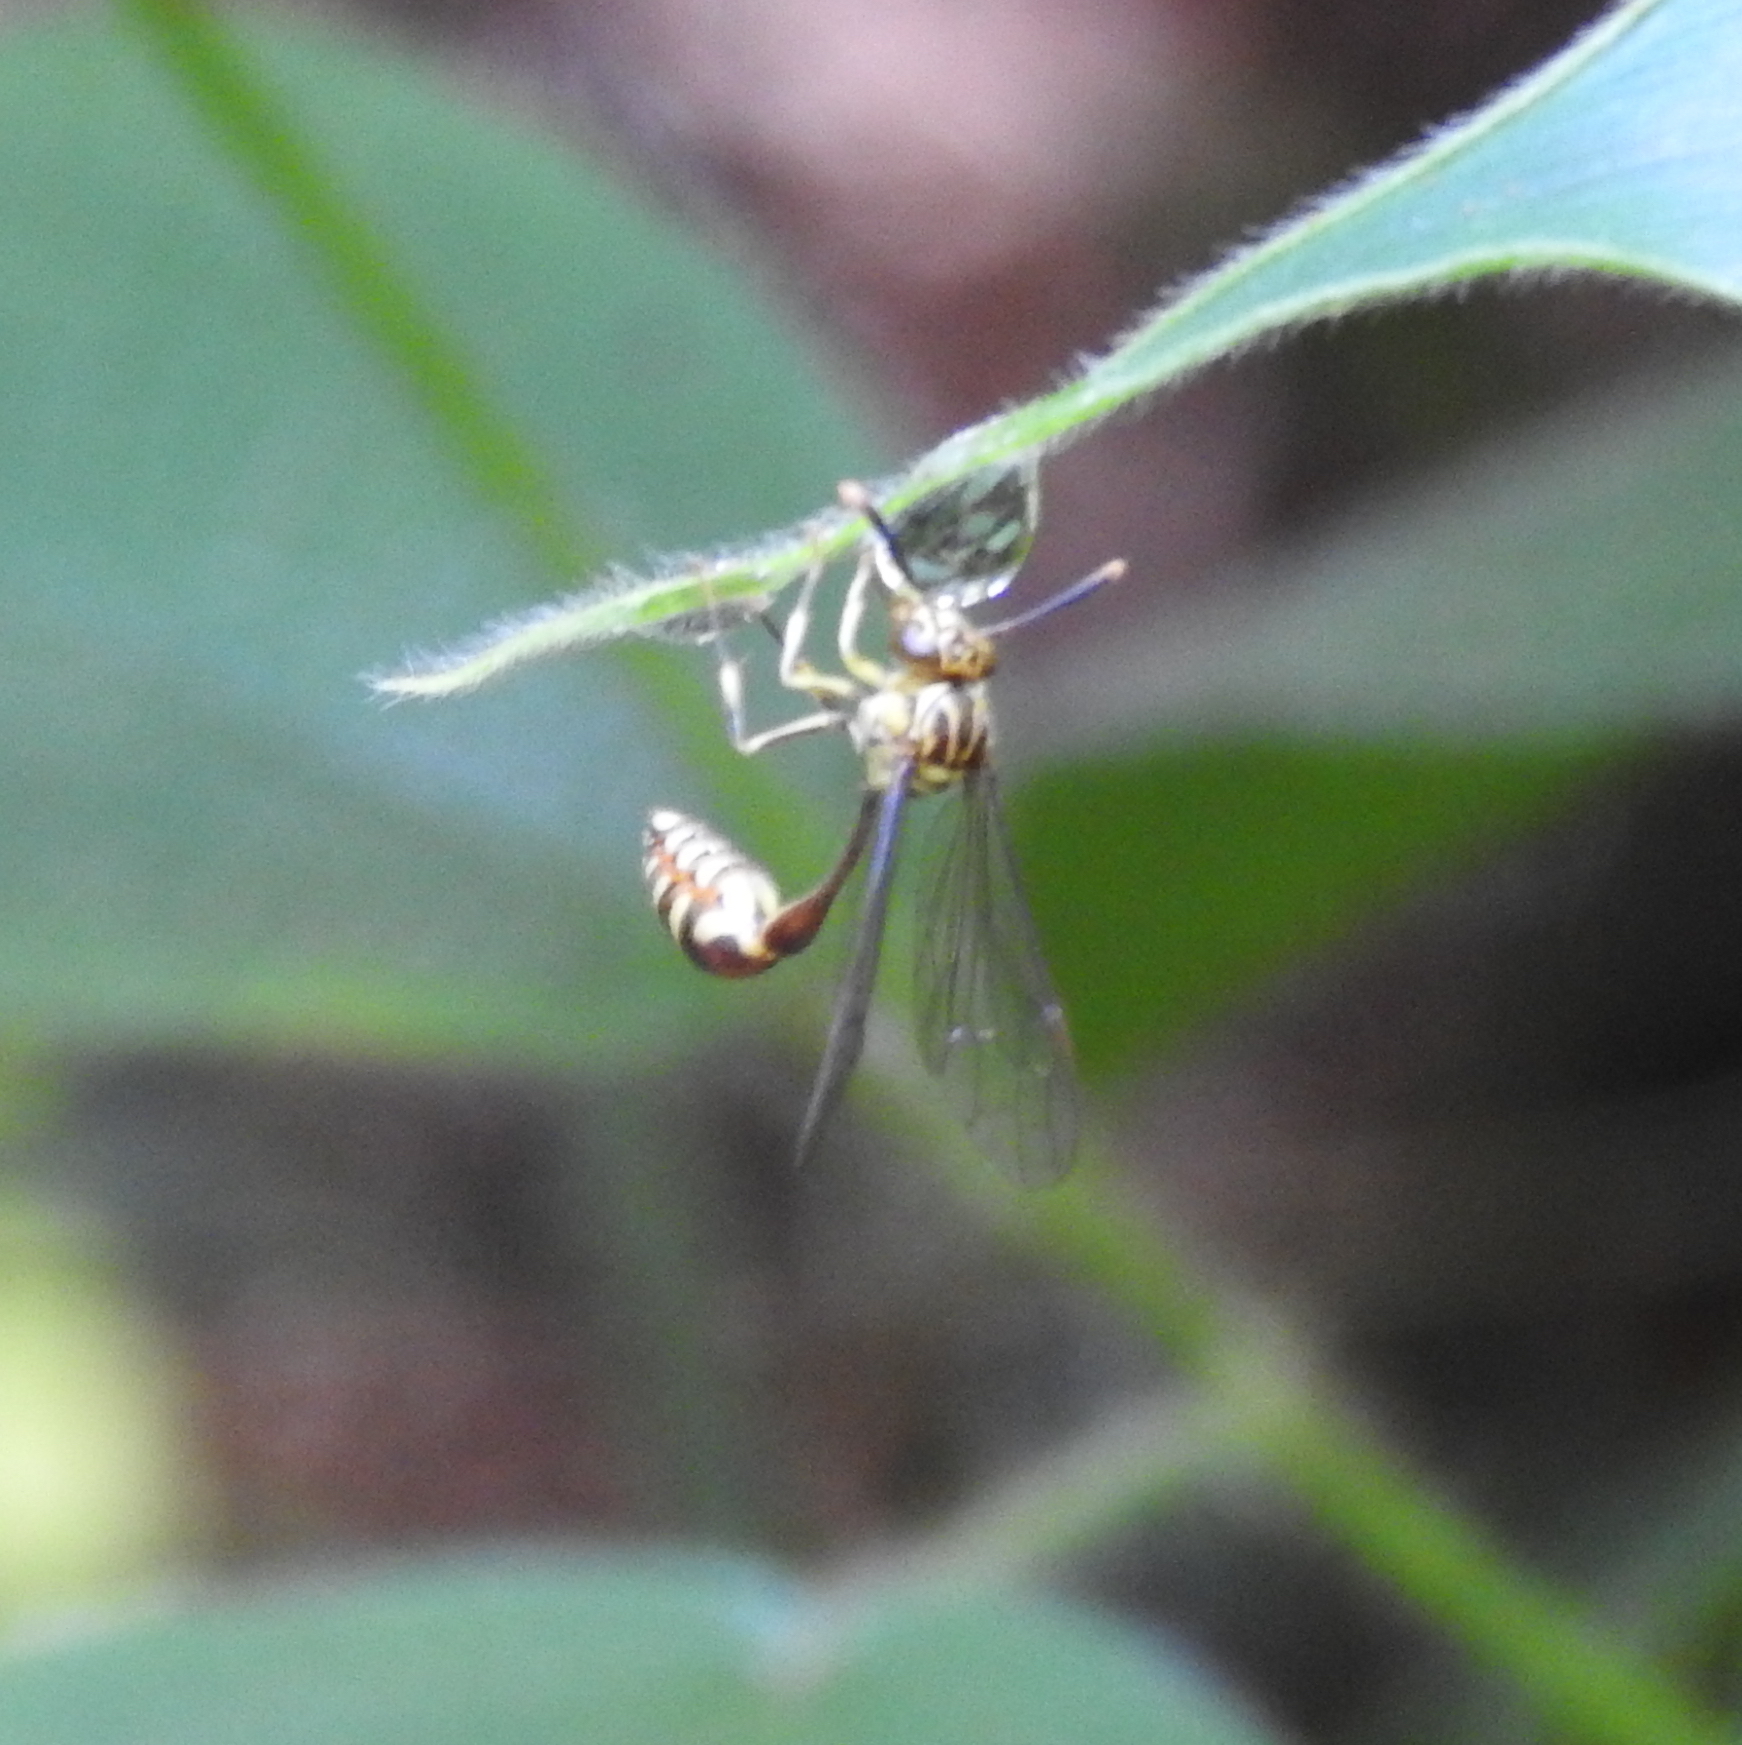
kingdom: Animalia
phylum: Arthropoda
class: Insecta
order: Hymenoptera
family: Vespidae
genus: Liostenogaster
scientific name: Liostenogaster variapicta
